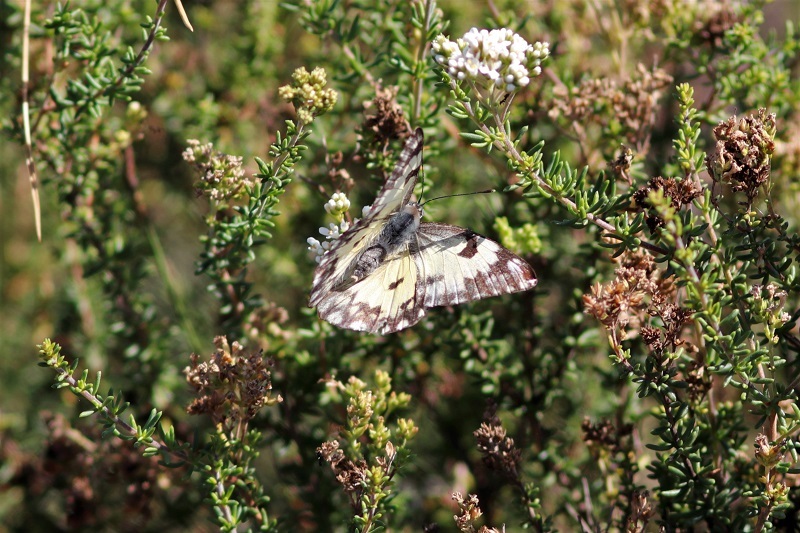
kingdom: Animalia
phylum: Arthropoda
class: Insecta
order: Lepidoptera
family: Pieridae
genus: Belenois
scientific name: Belenois gidica
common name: Pointed caper white
